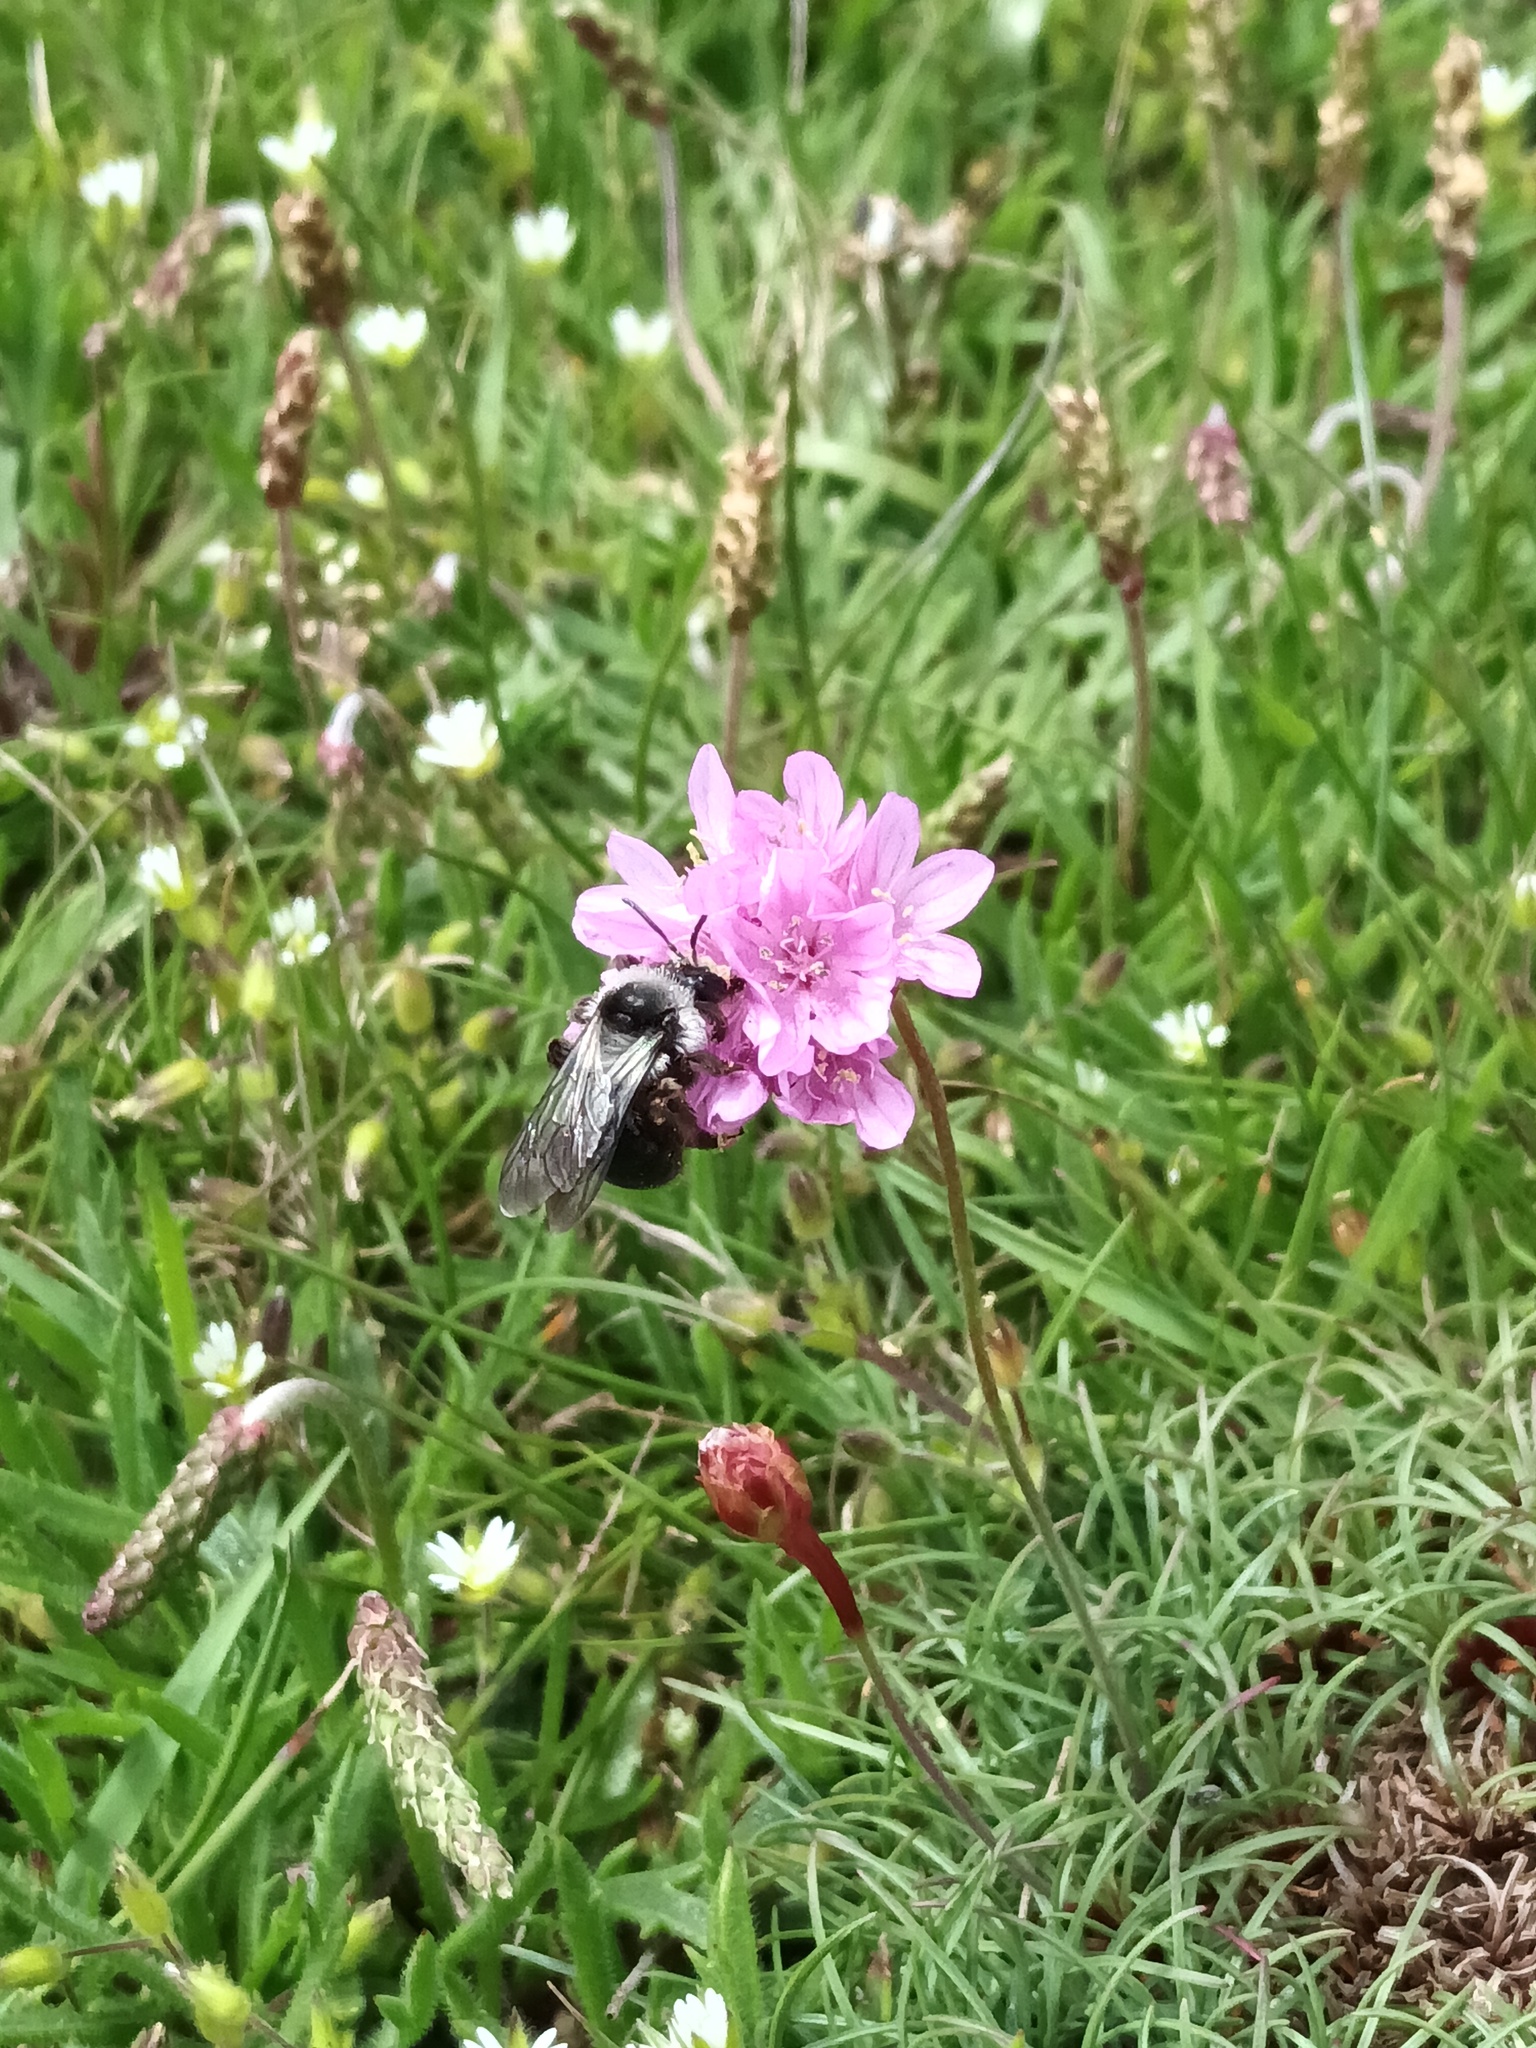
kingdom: Animalia
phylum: Arthropoda
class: Insecta
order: Hymenoptera
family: Andrenidae
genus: Andrena
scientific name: Andrena cineraria
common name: Ashy mining bee
